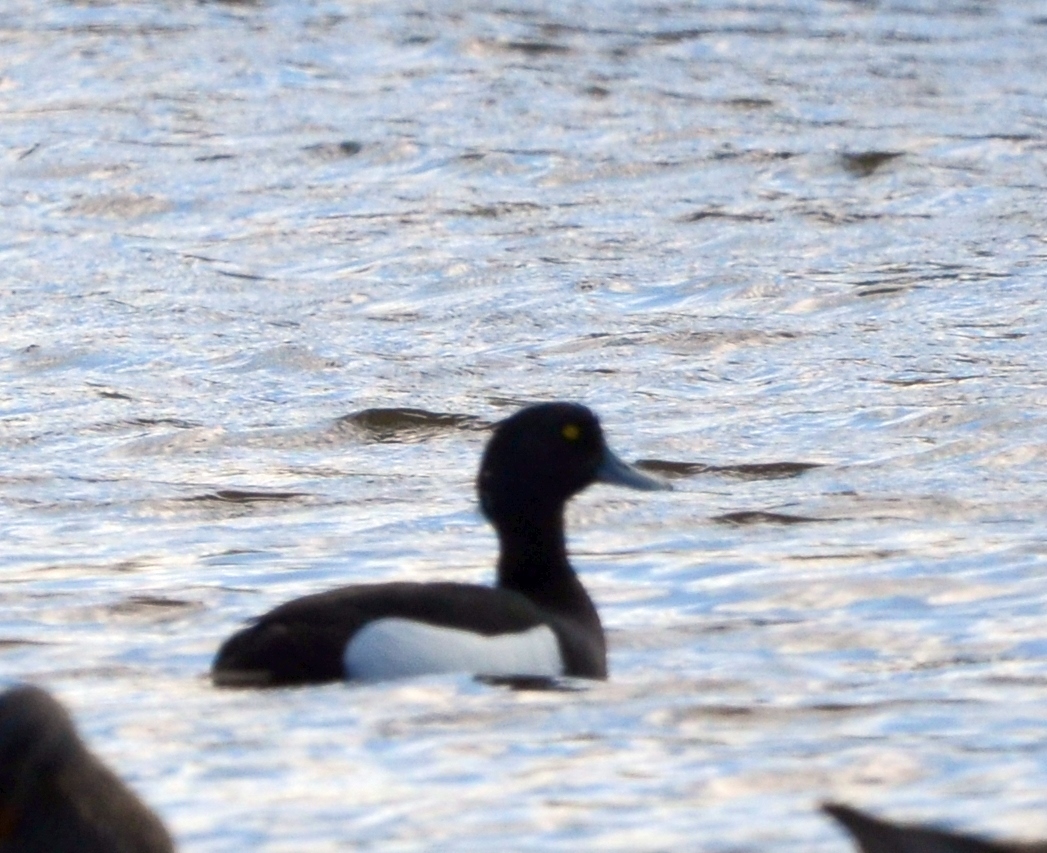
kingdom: Animalia
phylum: Chordata
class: Aves
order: Anseriformes
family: Anatidae
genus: Aythya
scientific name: Aythya fuligula
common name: Tufted duck
